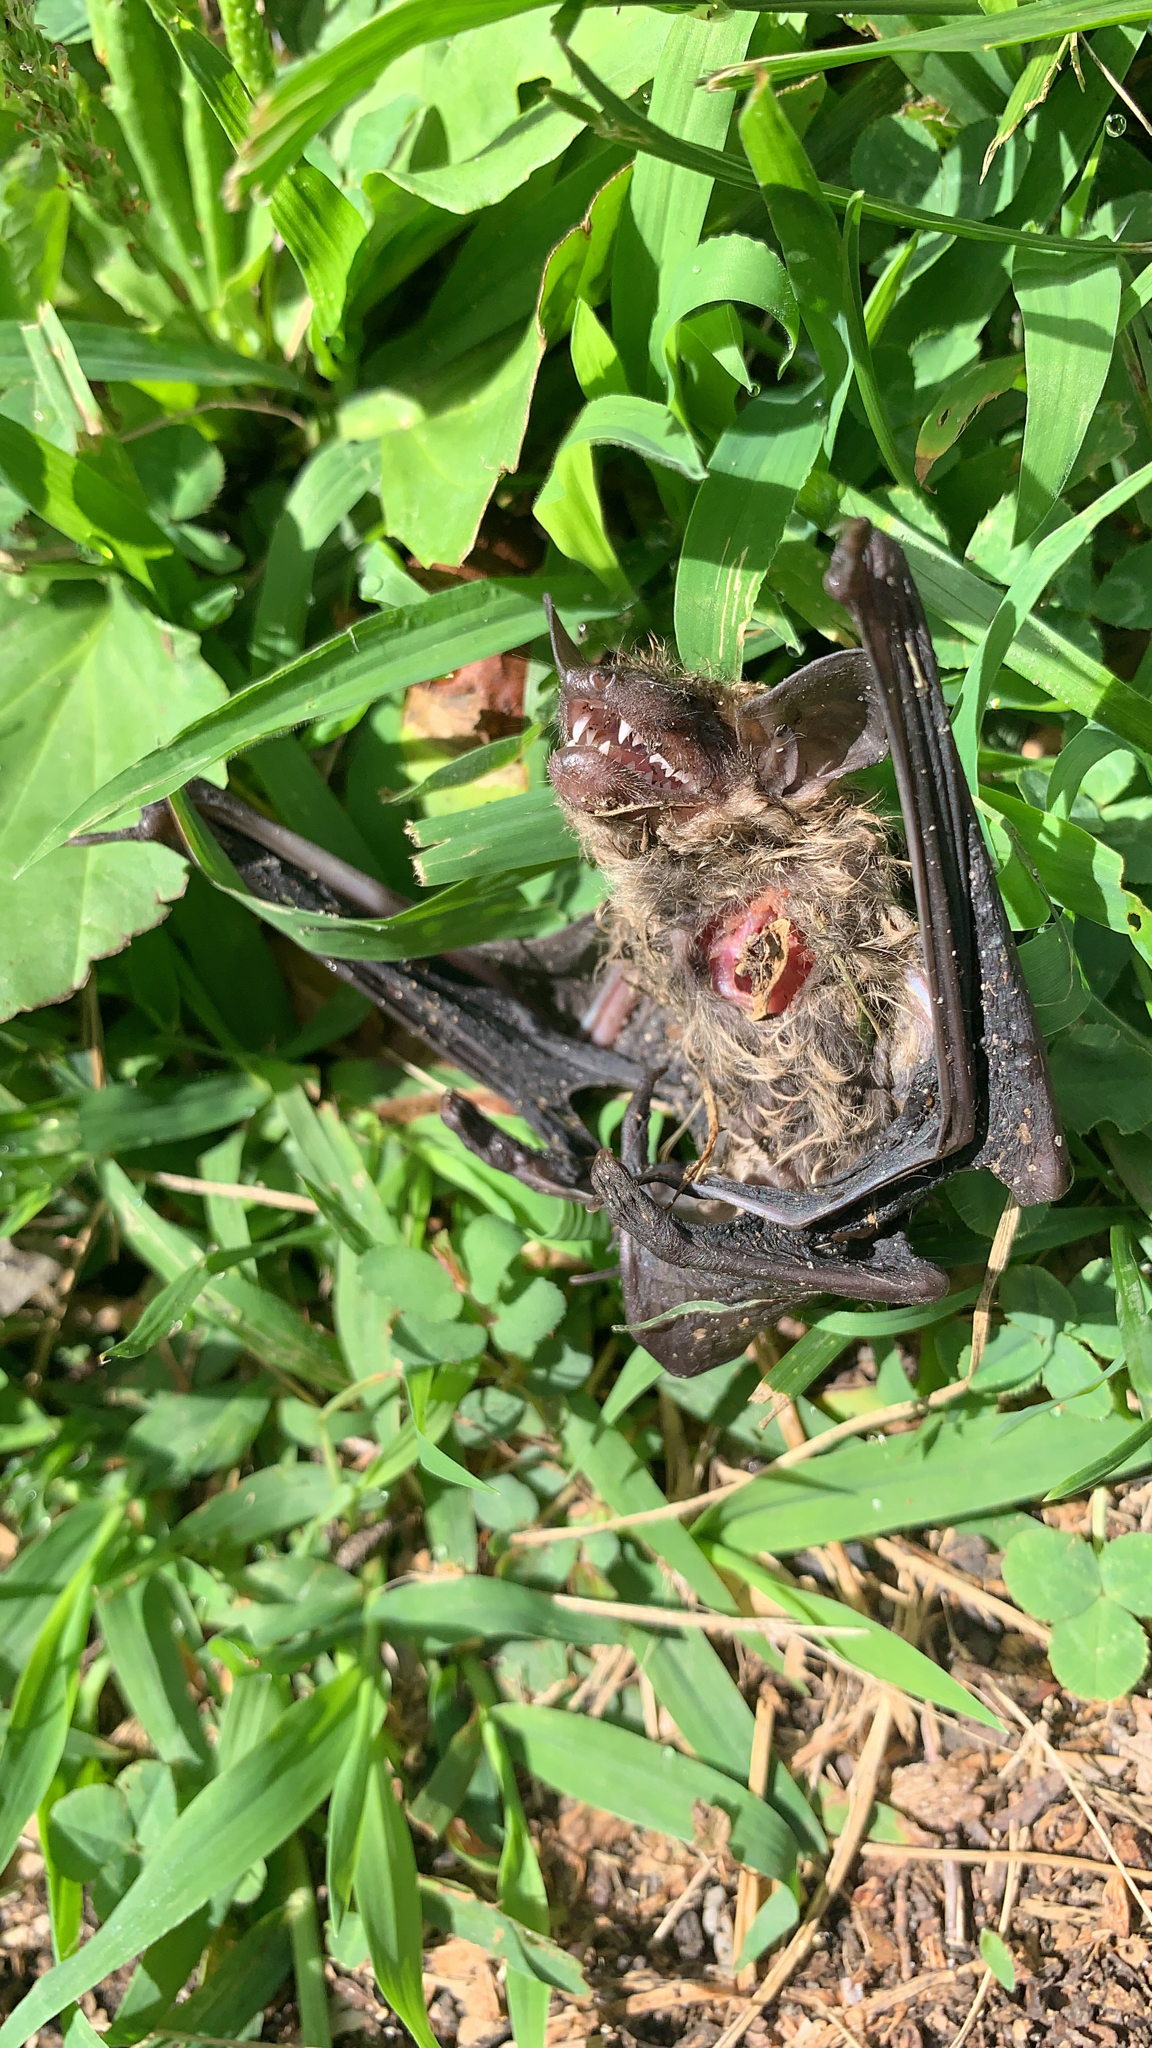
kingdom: Animalia
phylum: Chordata
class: Mammalia
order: Chiroptera
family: Vespertilionidae
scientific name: Vespertilionidae
